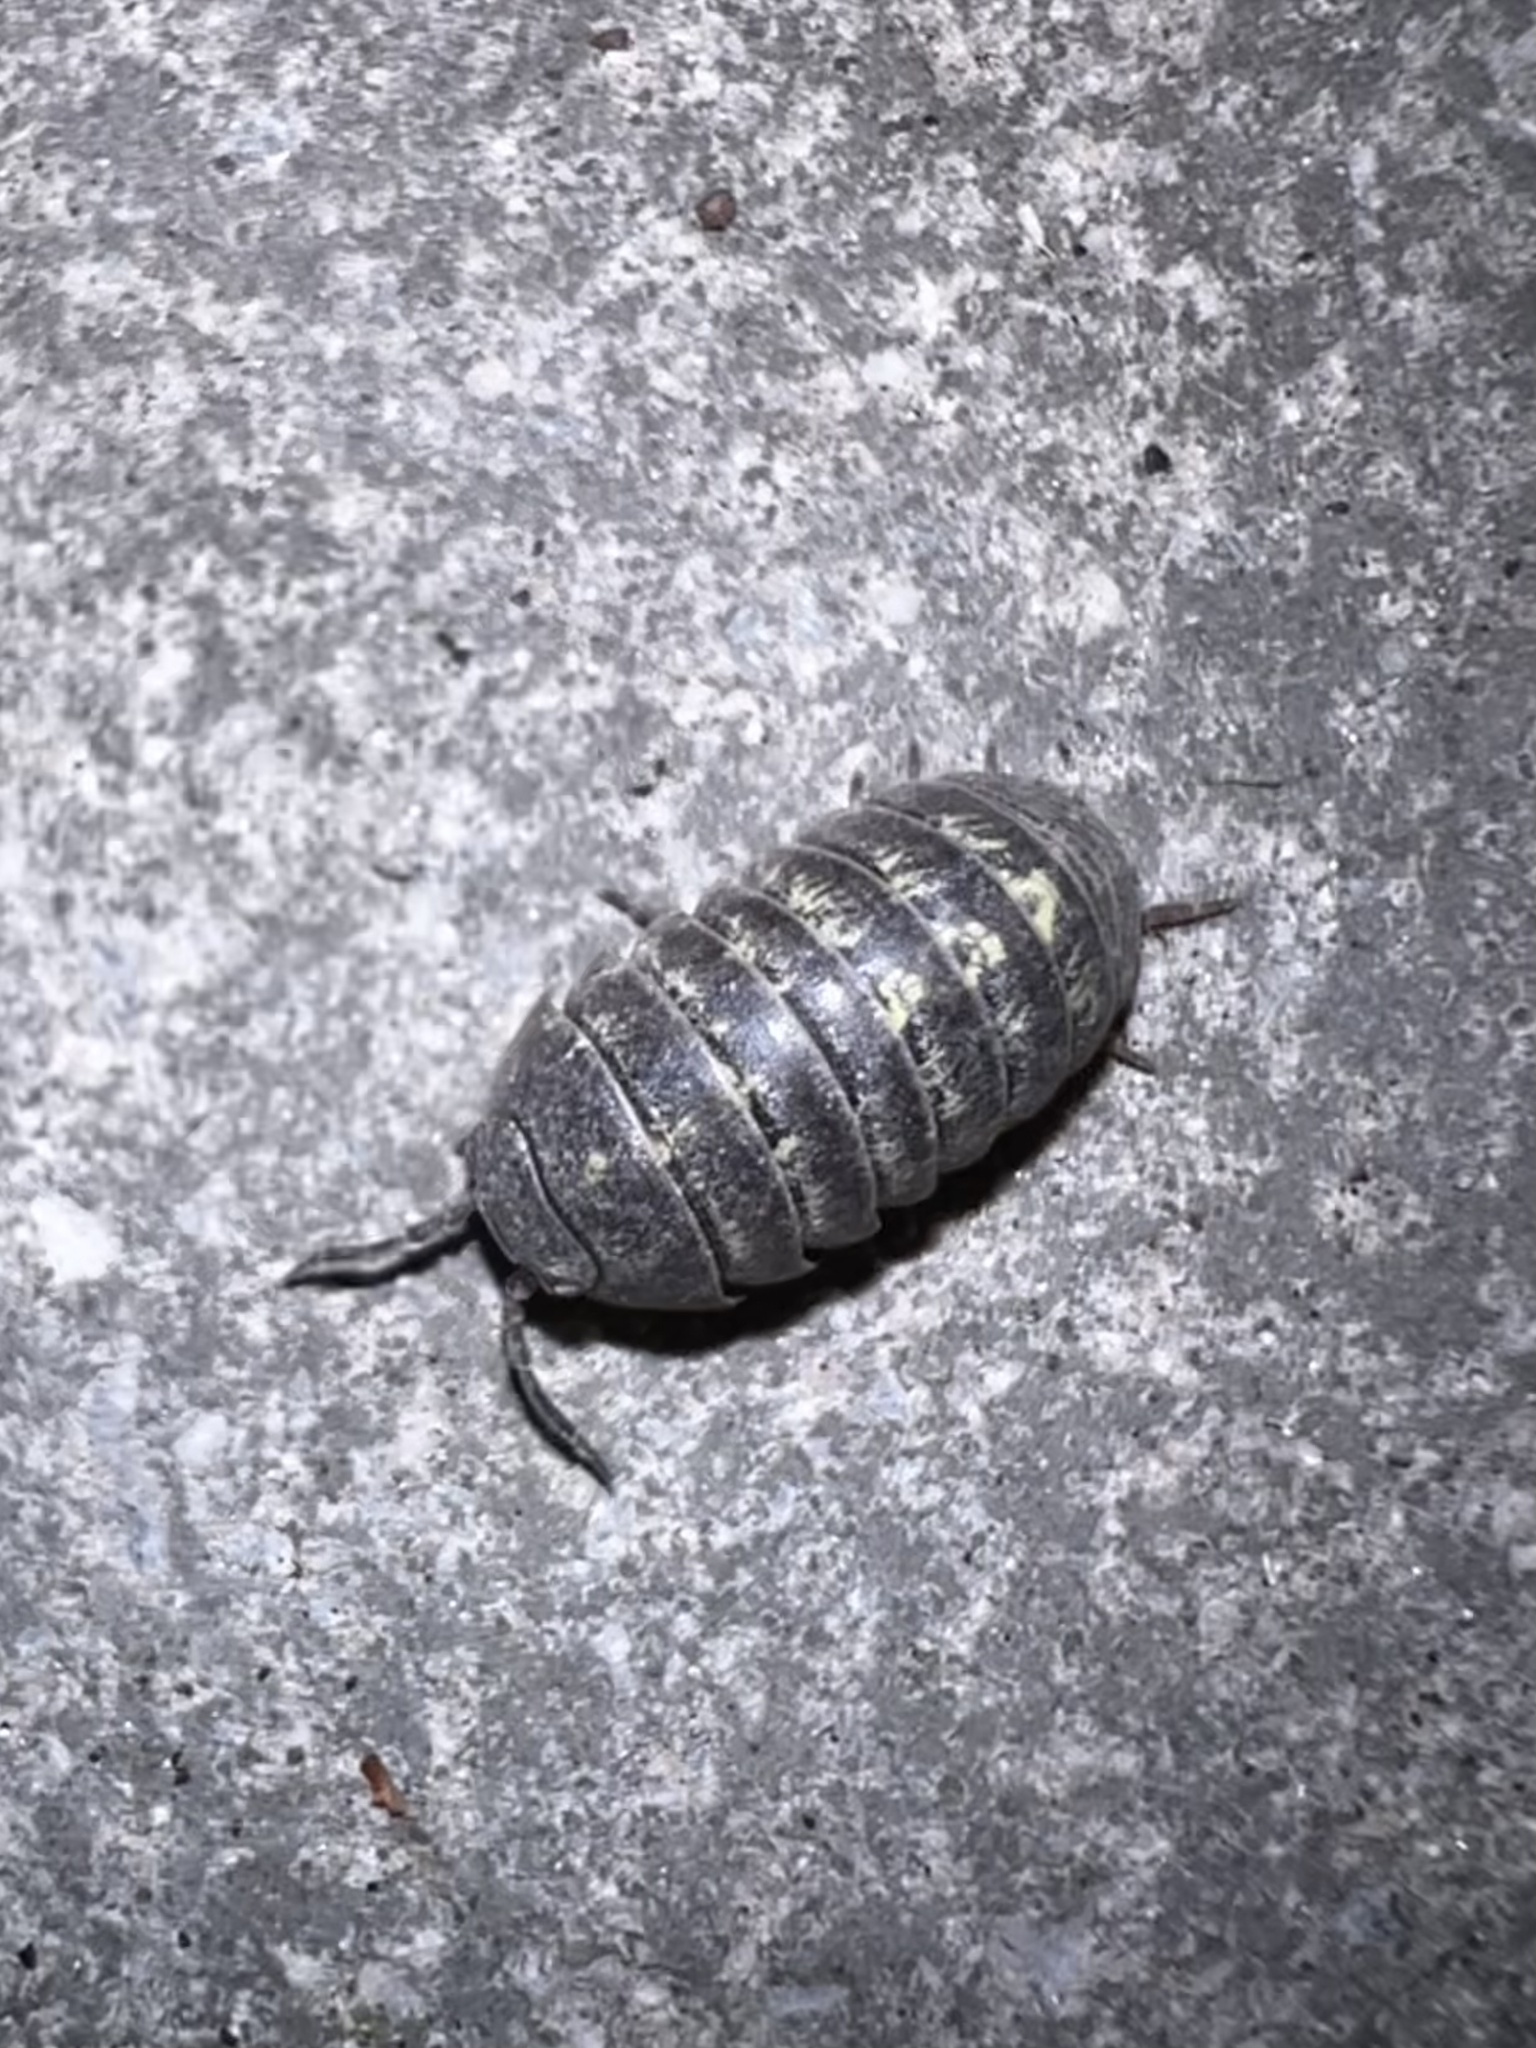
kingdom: Animalia
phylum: Arthropoda
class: Malacostraca
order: Isopoda
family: Armadillidiidae
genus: Armadillidium
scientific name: Armadillidium vulgare
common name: Common pill woodlouse
